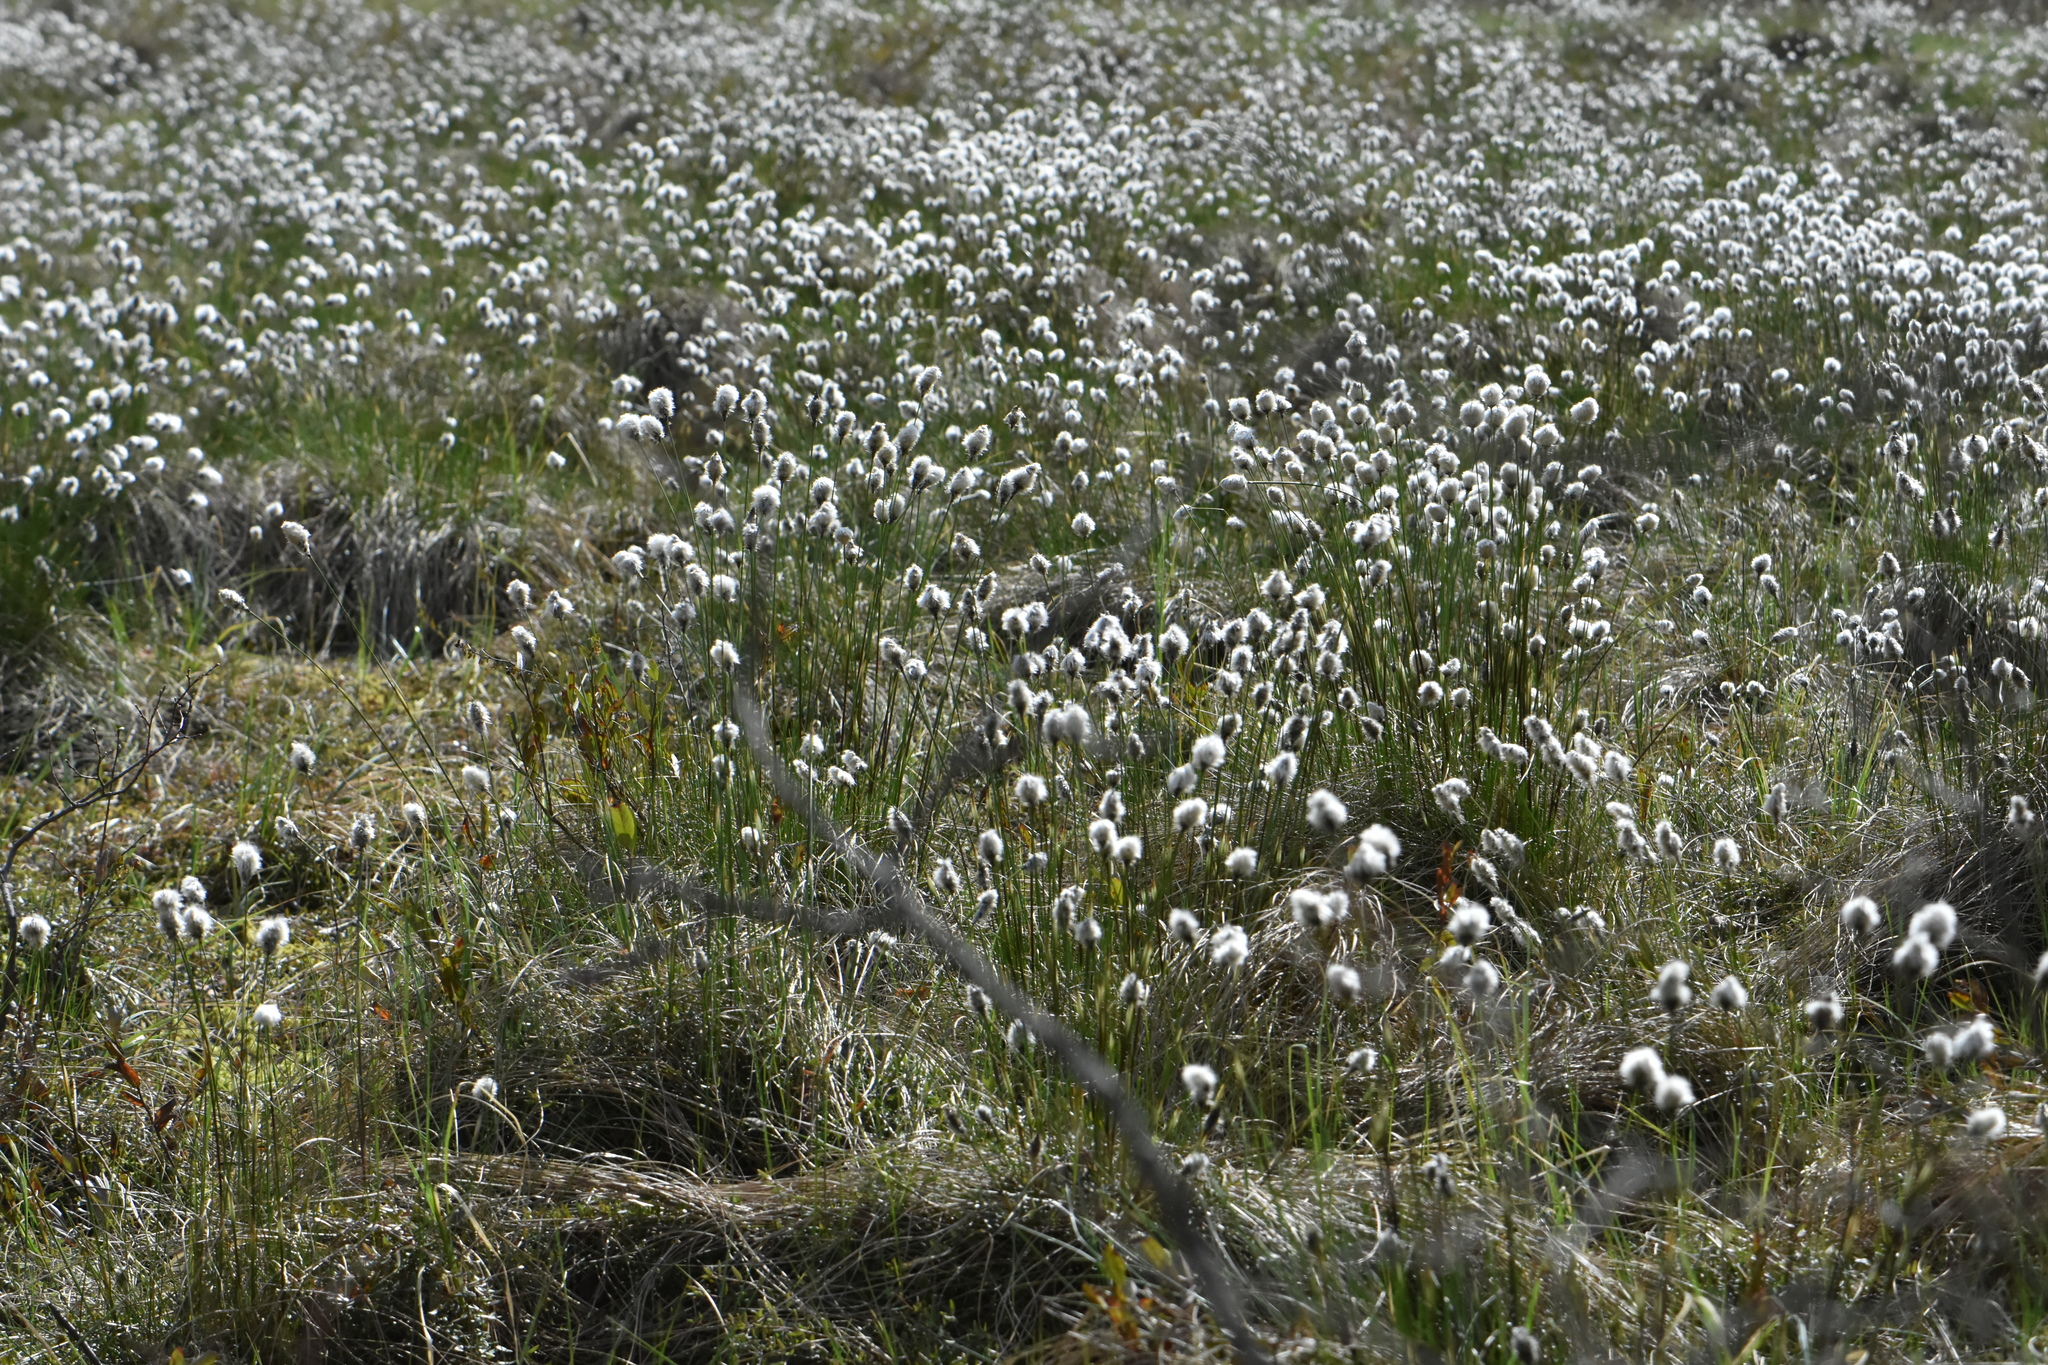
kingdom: Plantae
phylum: Tracheophyta
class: Liliopsida
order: Poales
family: Cyperaceae
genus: Eriophorum
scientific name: Eriophorum vaginatum
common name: Hare's-tail cottongrass
